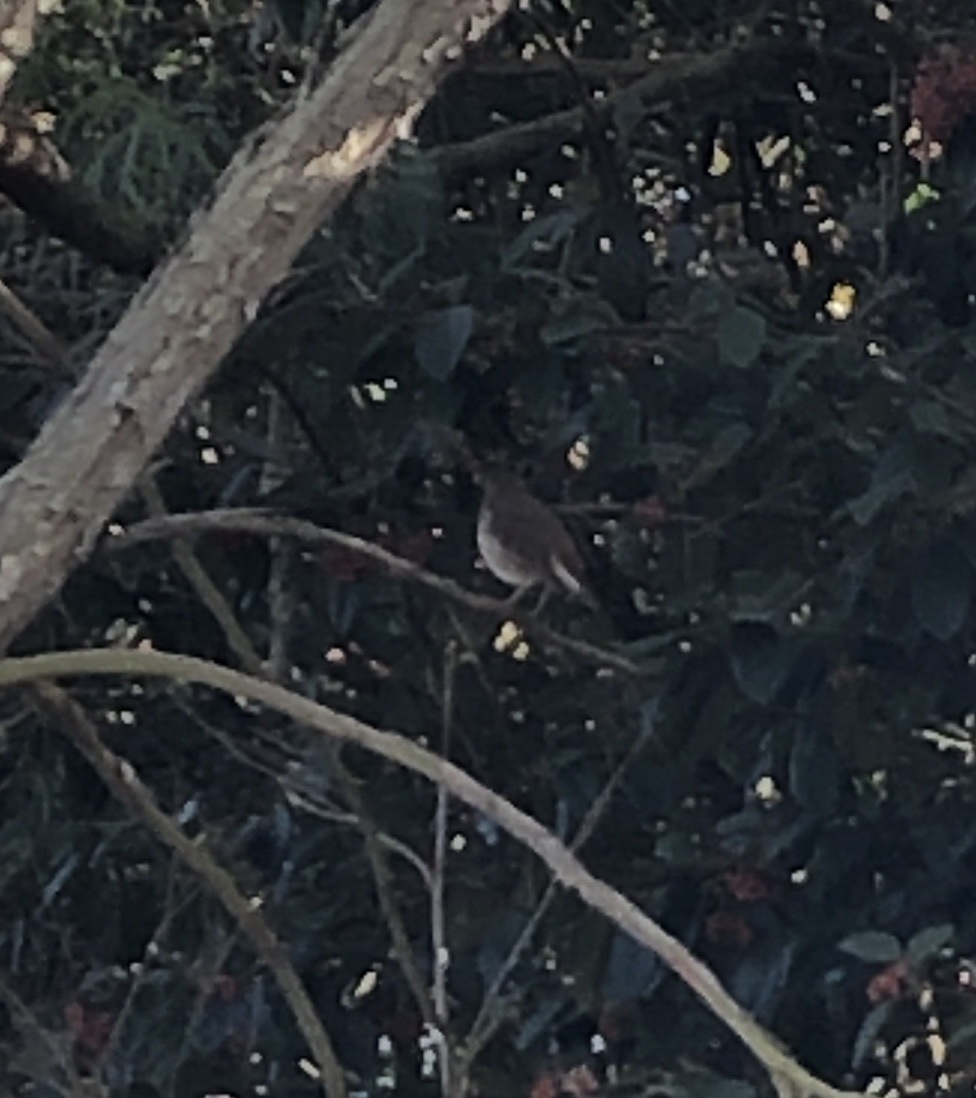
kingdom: Animalia
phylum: Chordata
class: Aves
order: Passeriformes
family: Turdidae
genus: Catharus
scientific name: Catharus guttatus
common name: Hermit thrush
